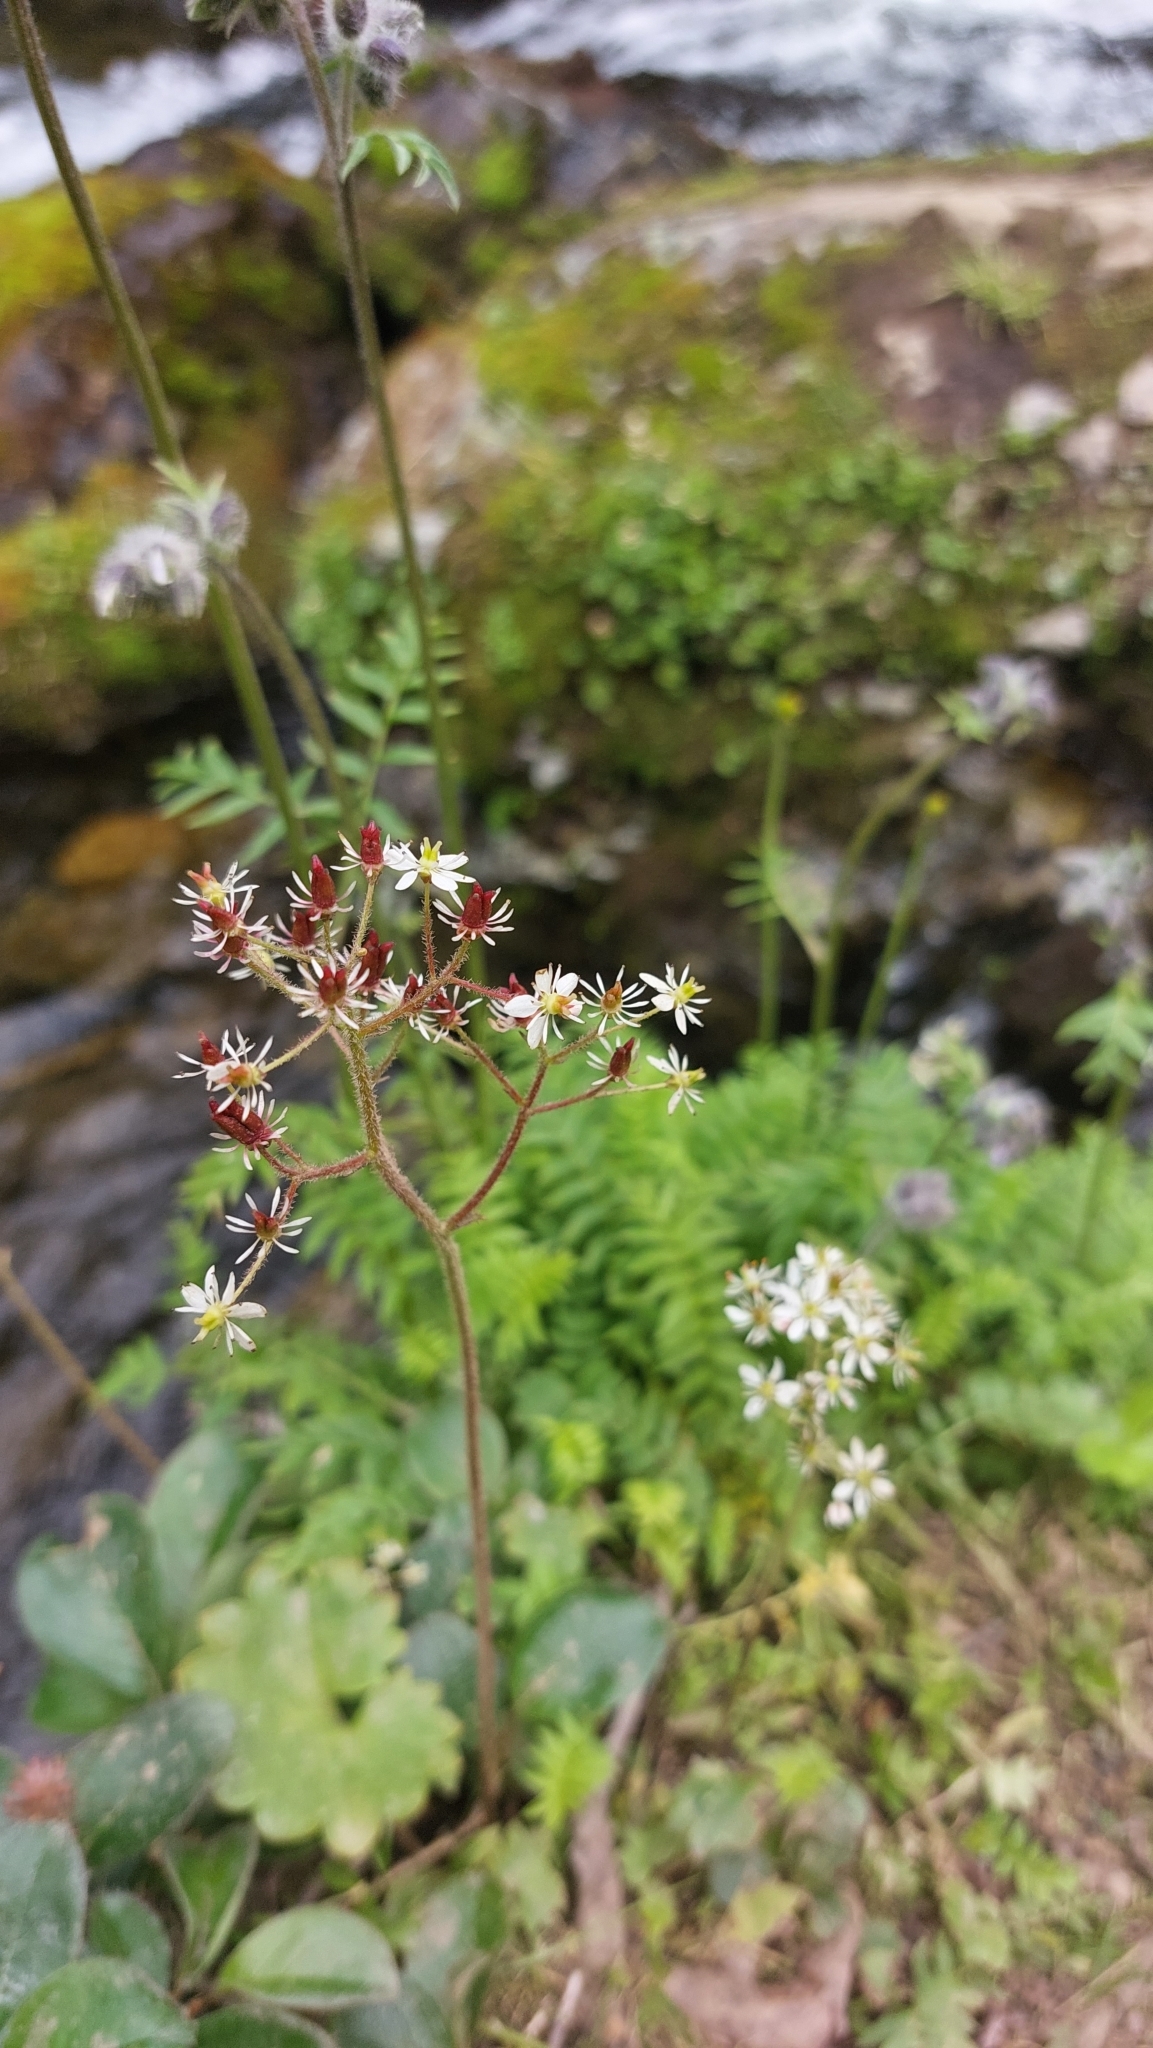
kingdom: Plantae
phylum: Tracheophyta
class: Magnoliopsida
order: Saxifragales
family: Saxifragaceae
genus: Micranthes
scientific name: Micranthes nelsoniana
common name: Nelson's saxifrage
